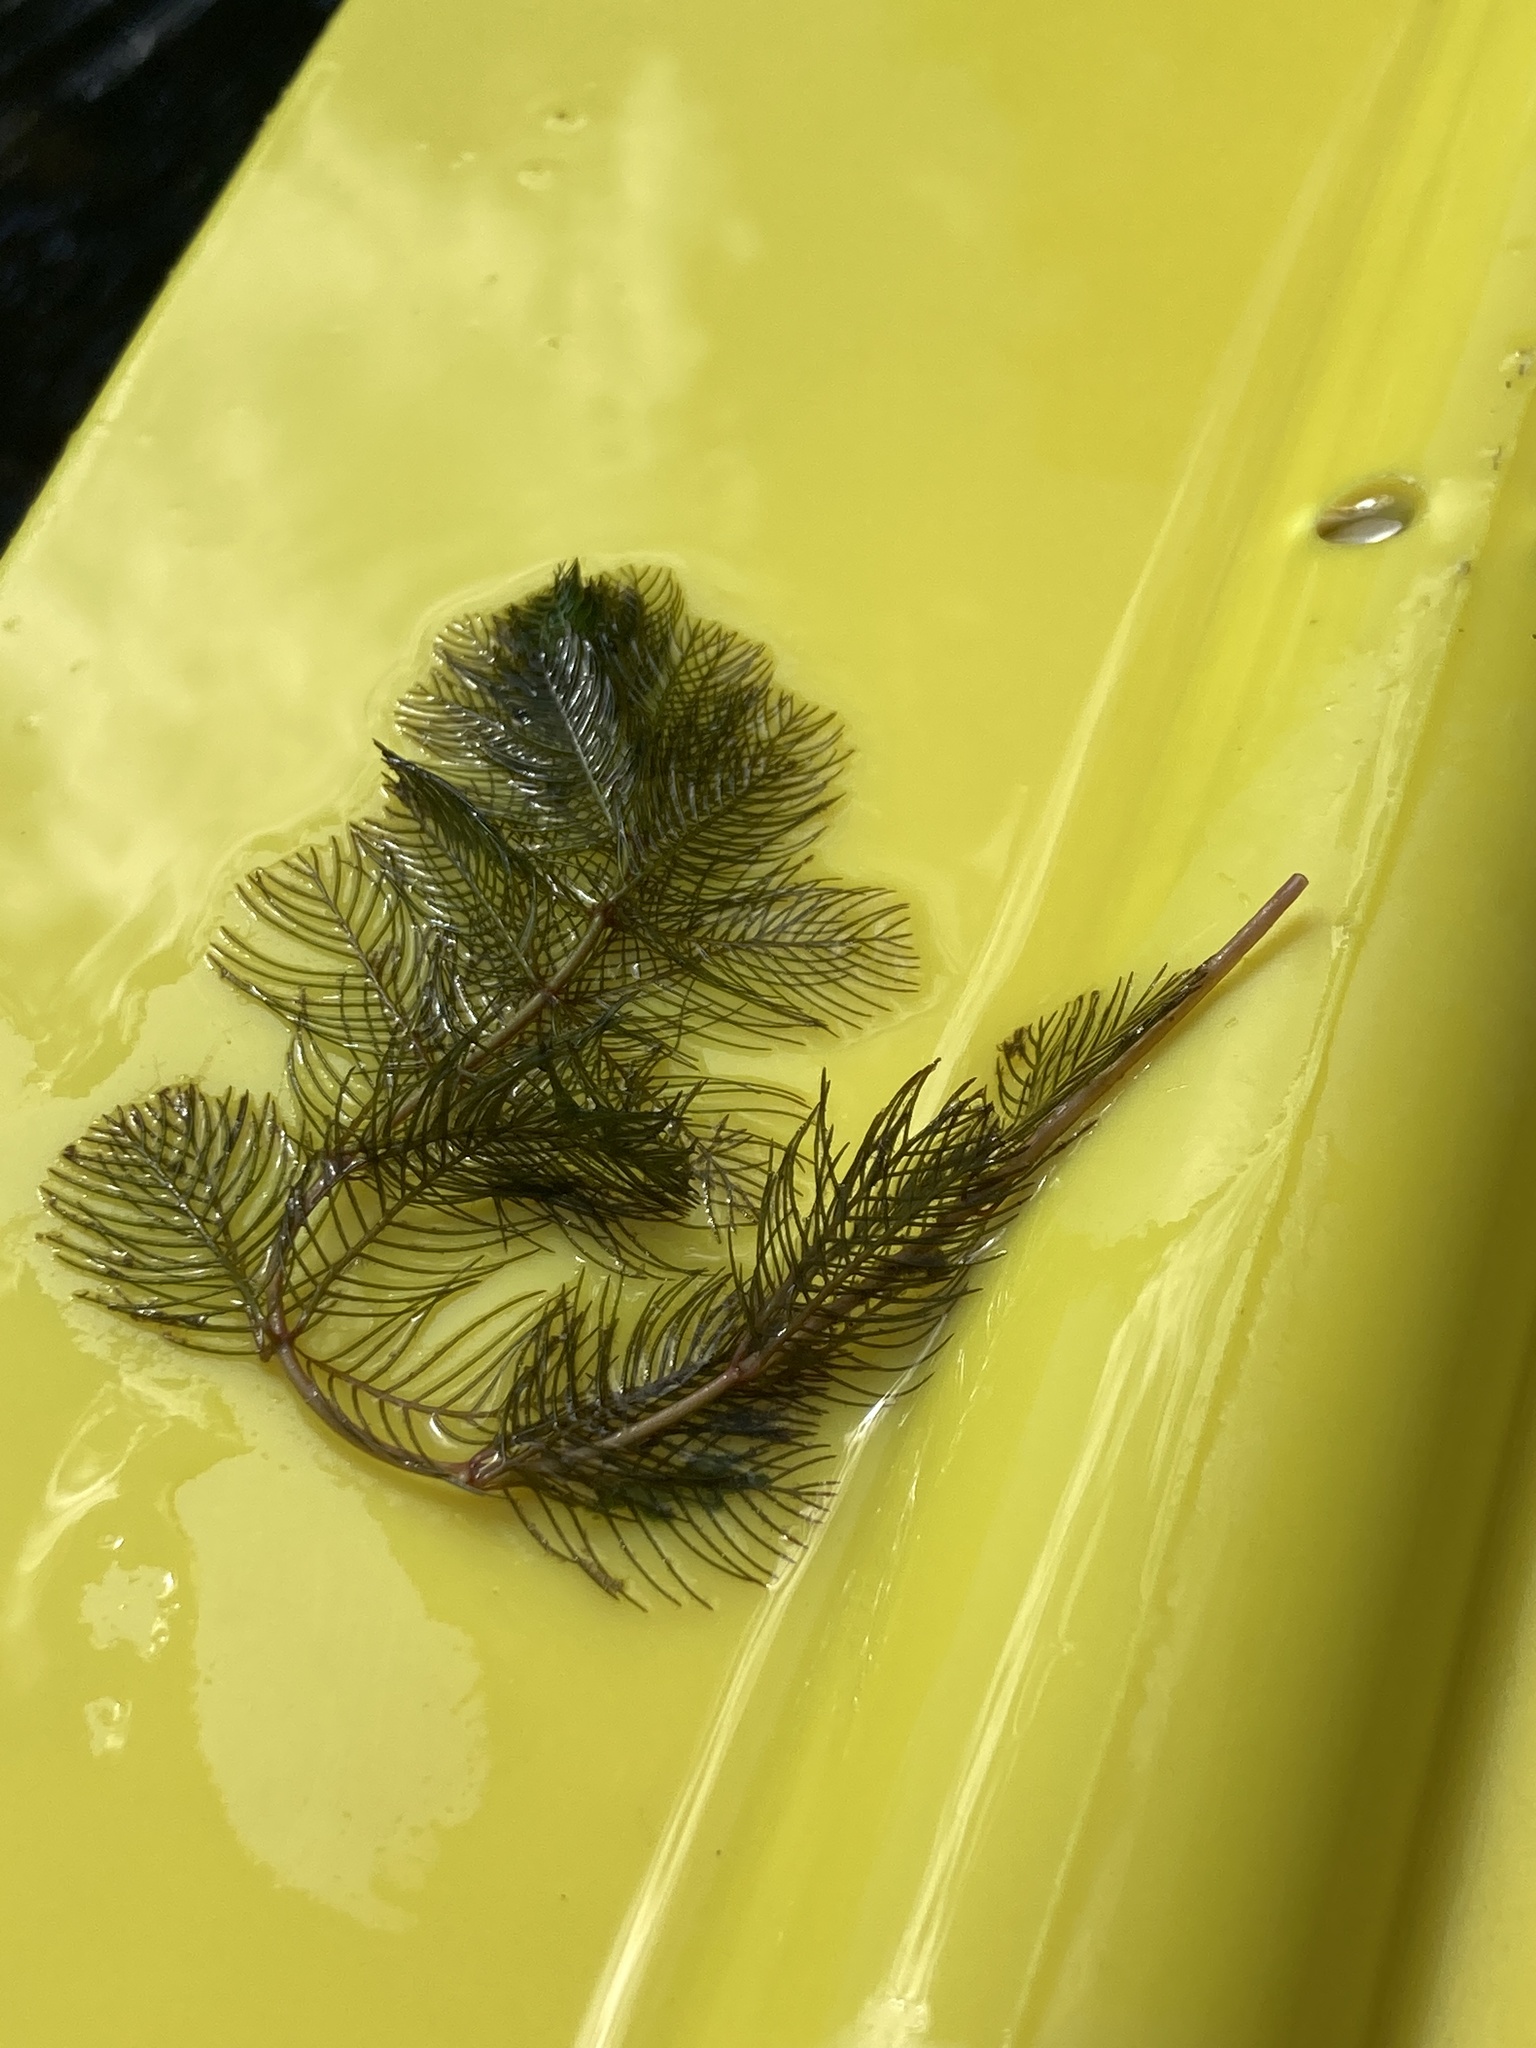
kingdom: Plantae
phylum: Tracheophyta
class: Magnoliopsida
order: Saxifragales
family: Haloragaceae
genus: Myriophyllum
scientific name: Myriophyllum spicatum
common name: Spiked water-milfoil
